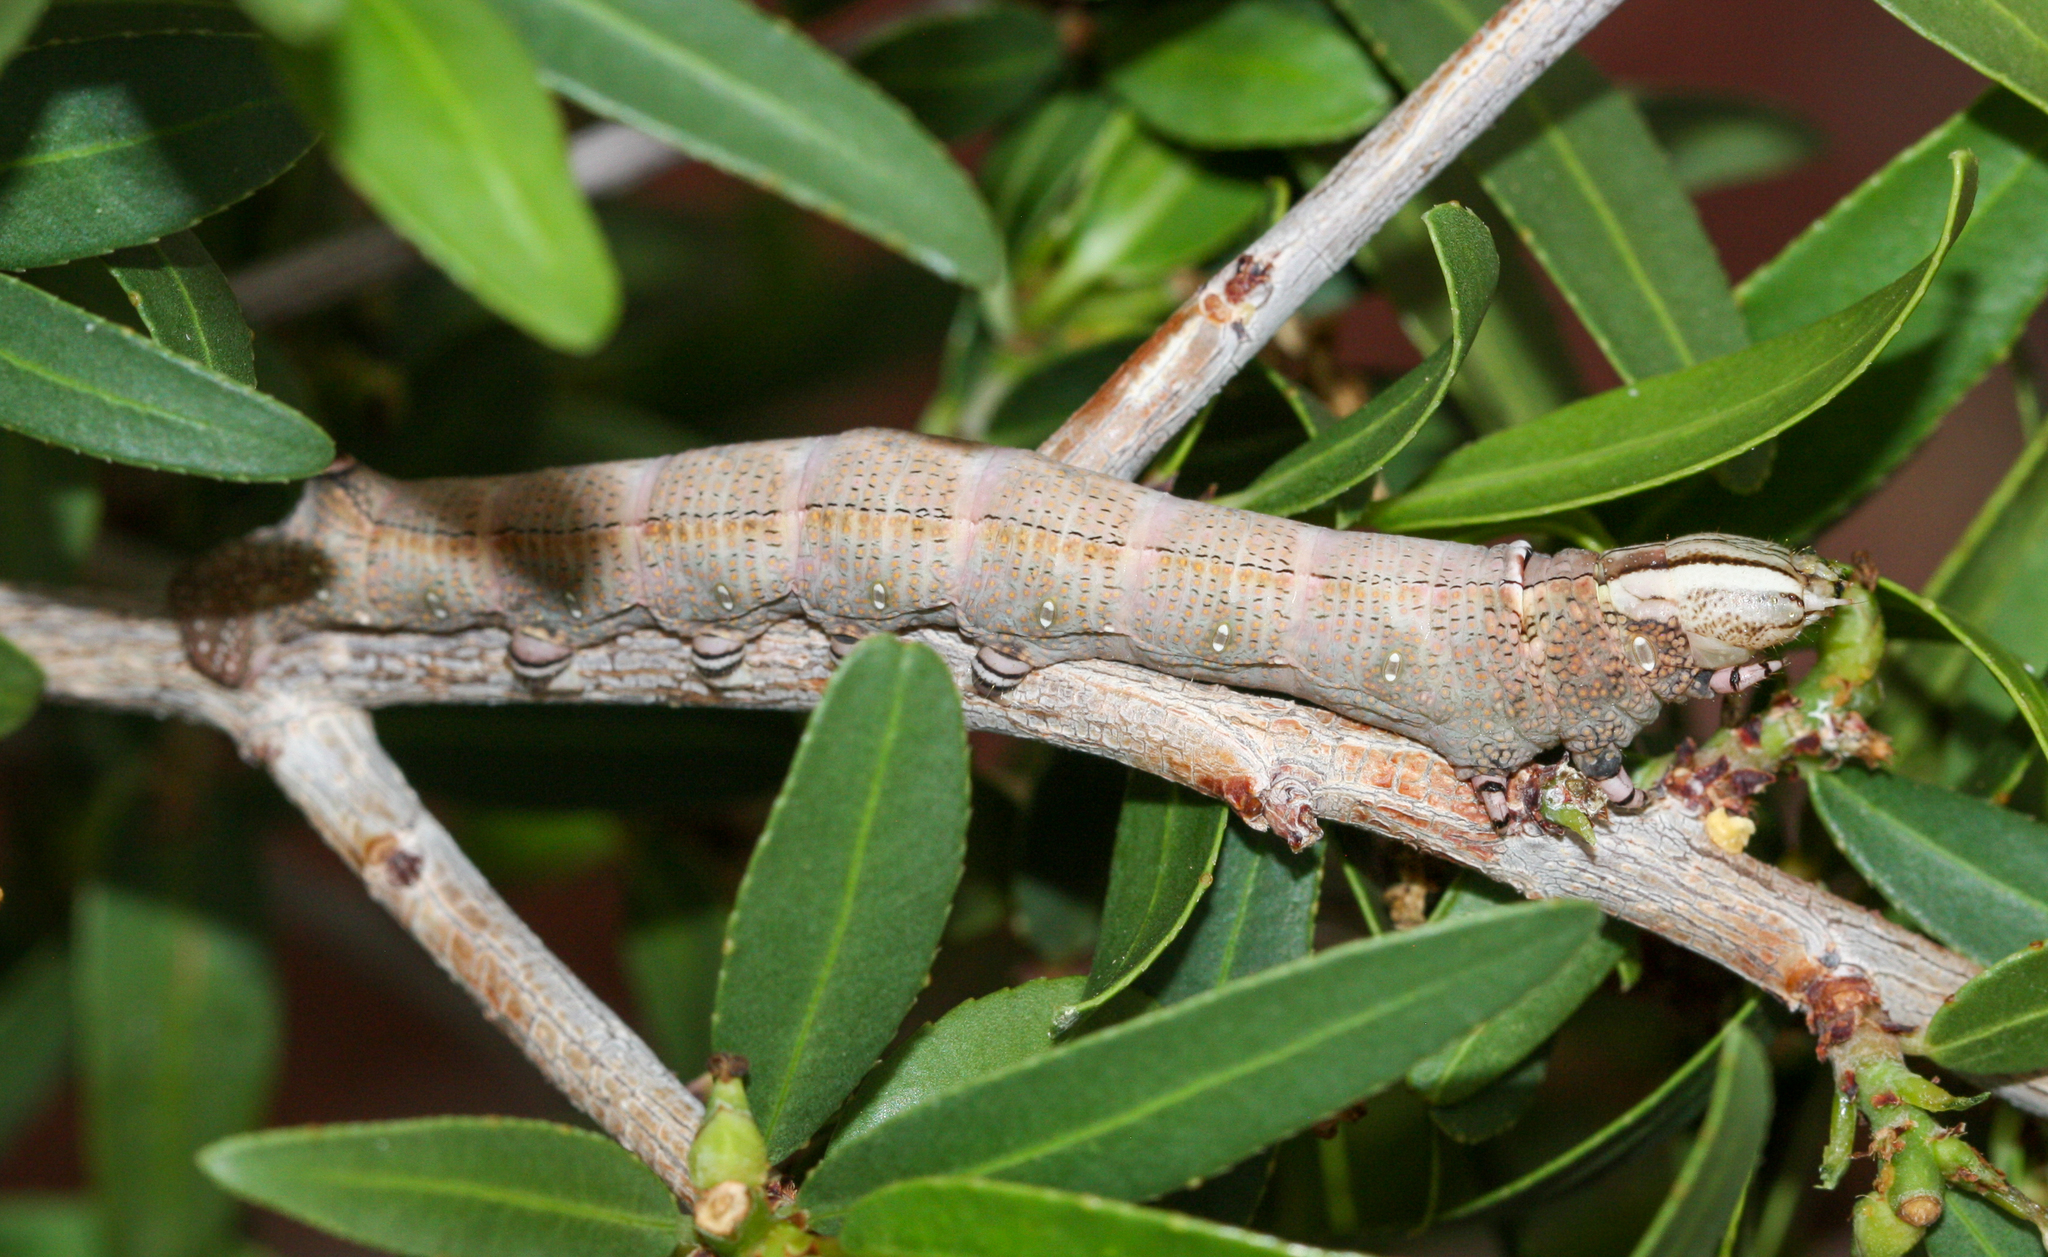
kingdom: Animalia
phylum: Arthropoda
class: Insecta
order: Lepidoptera
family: Sphingidae
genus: Erinnyis
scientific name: Erinnyis ello
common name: Ello sphinx
